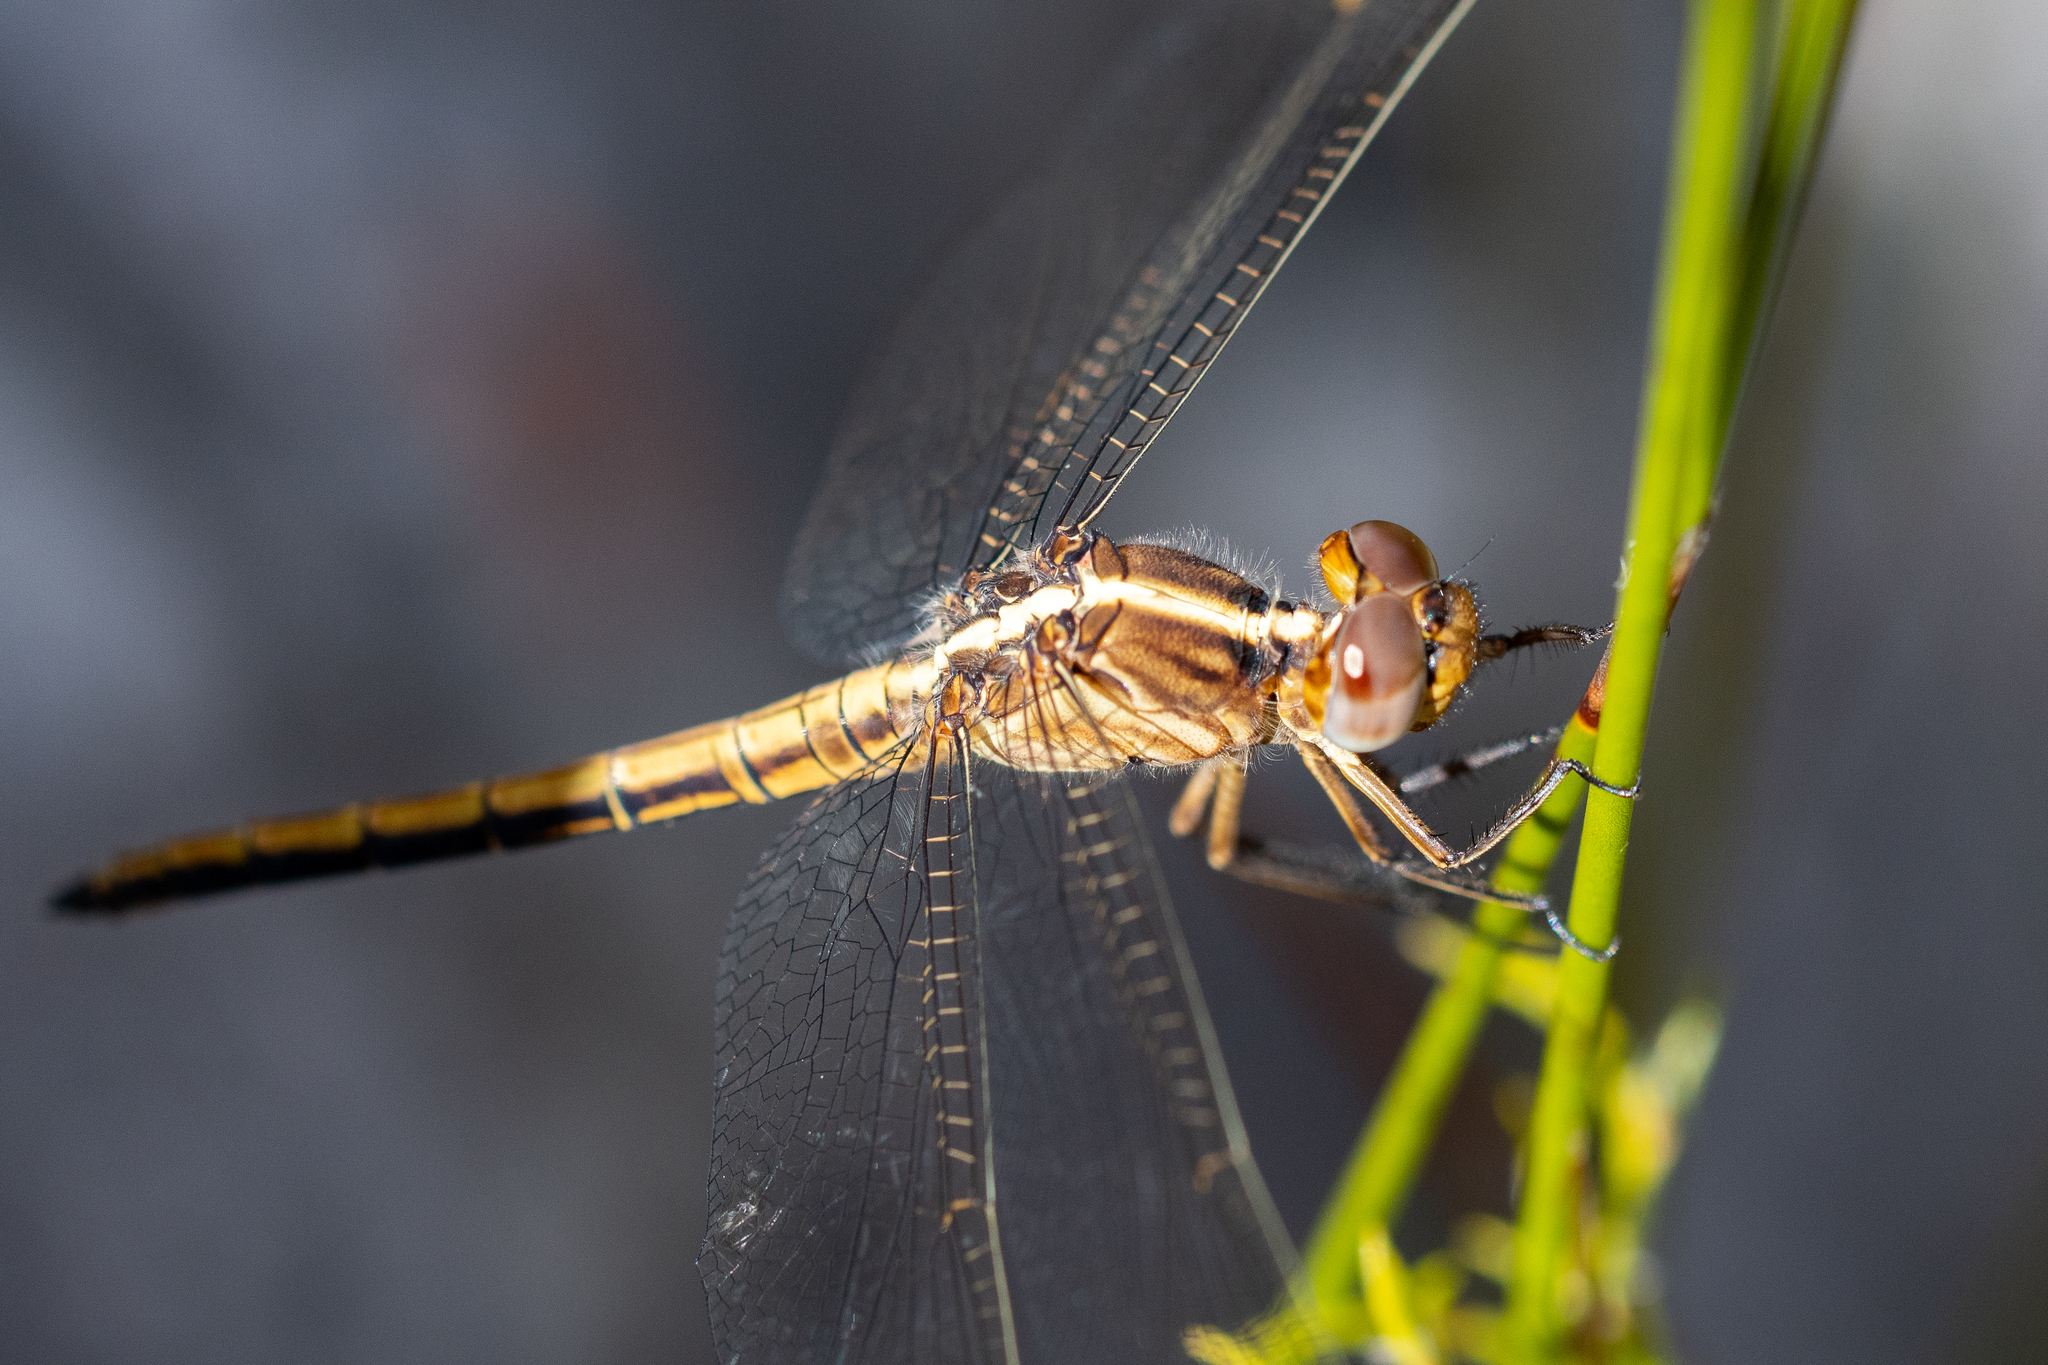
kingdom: Animalia
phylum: Arthropoda
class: Insecta
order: Odonata
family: Libellulidae
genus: Nesciothemis
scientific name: Nesciothemis farinosa
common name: Eastern blacktail
